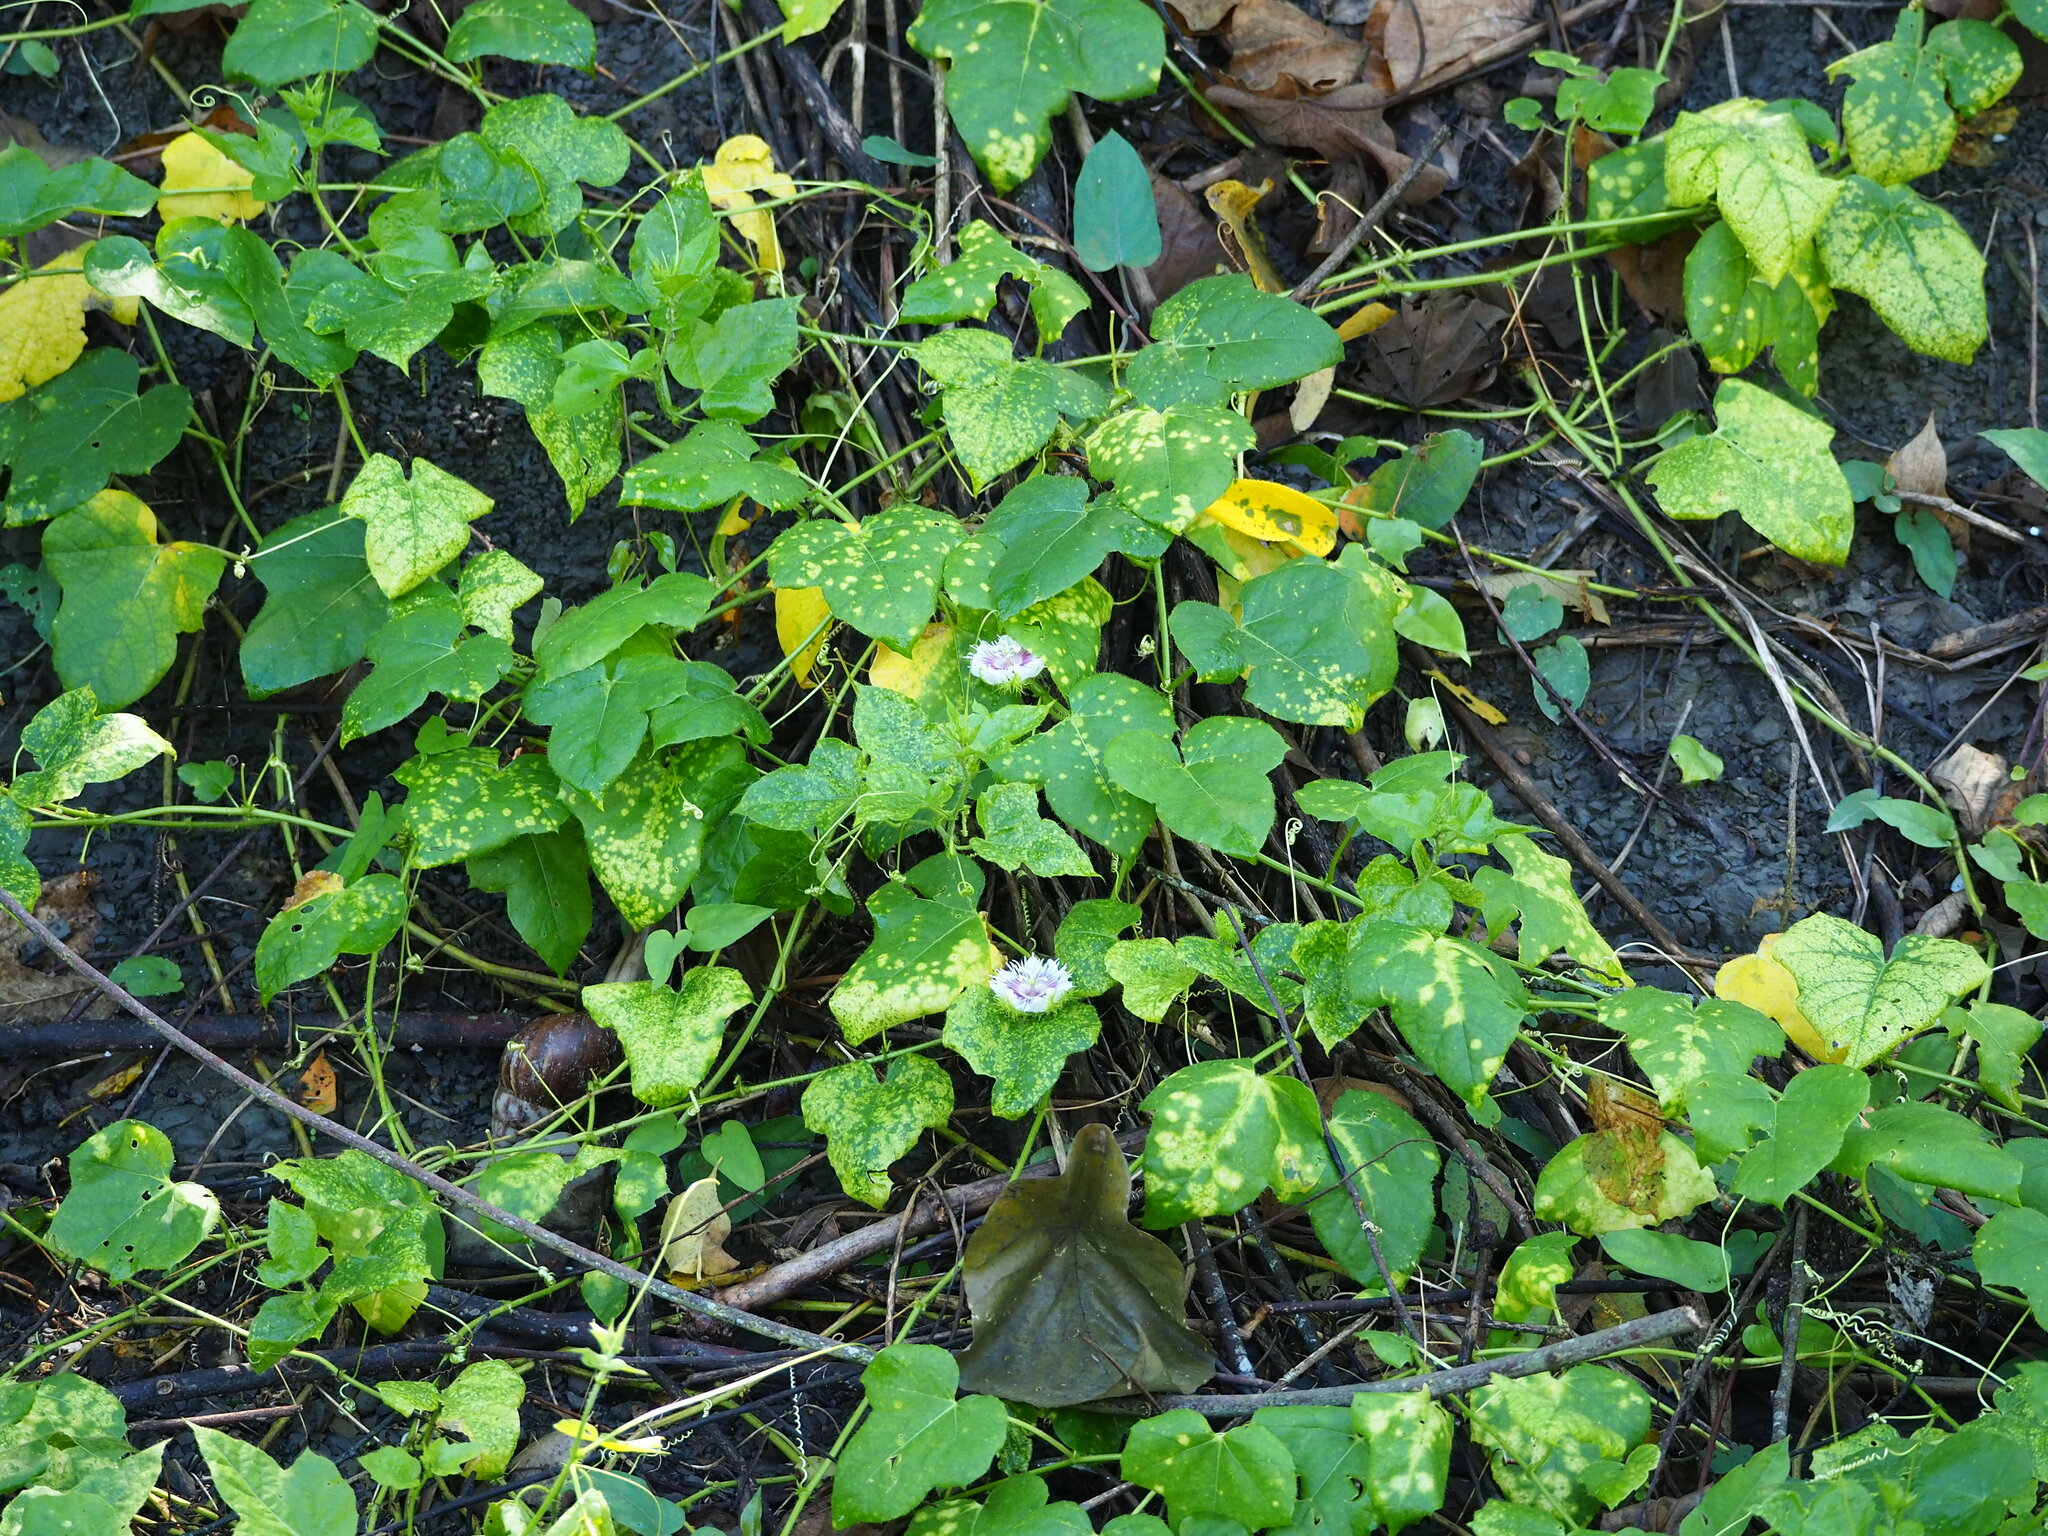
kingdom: Plantae
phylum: Tracheophyta
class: Magnoliopsida
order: Malpighiales
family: Passifloraceae
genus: Passiflora
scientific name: Passiflora vesicaria
